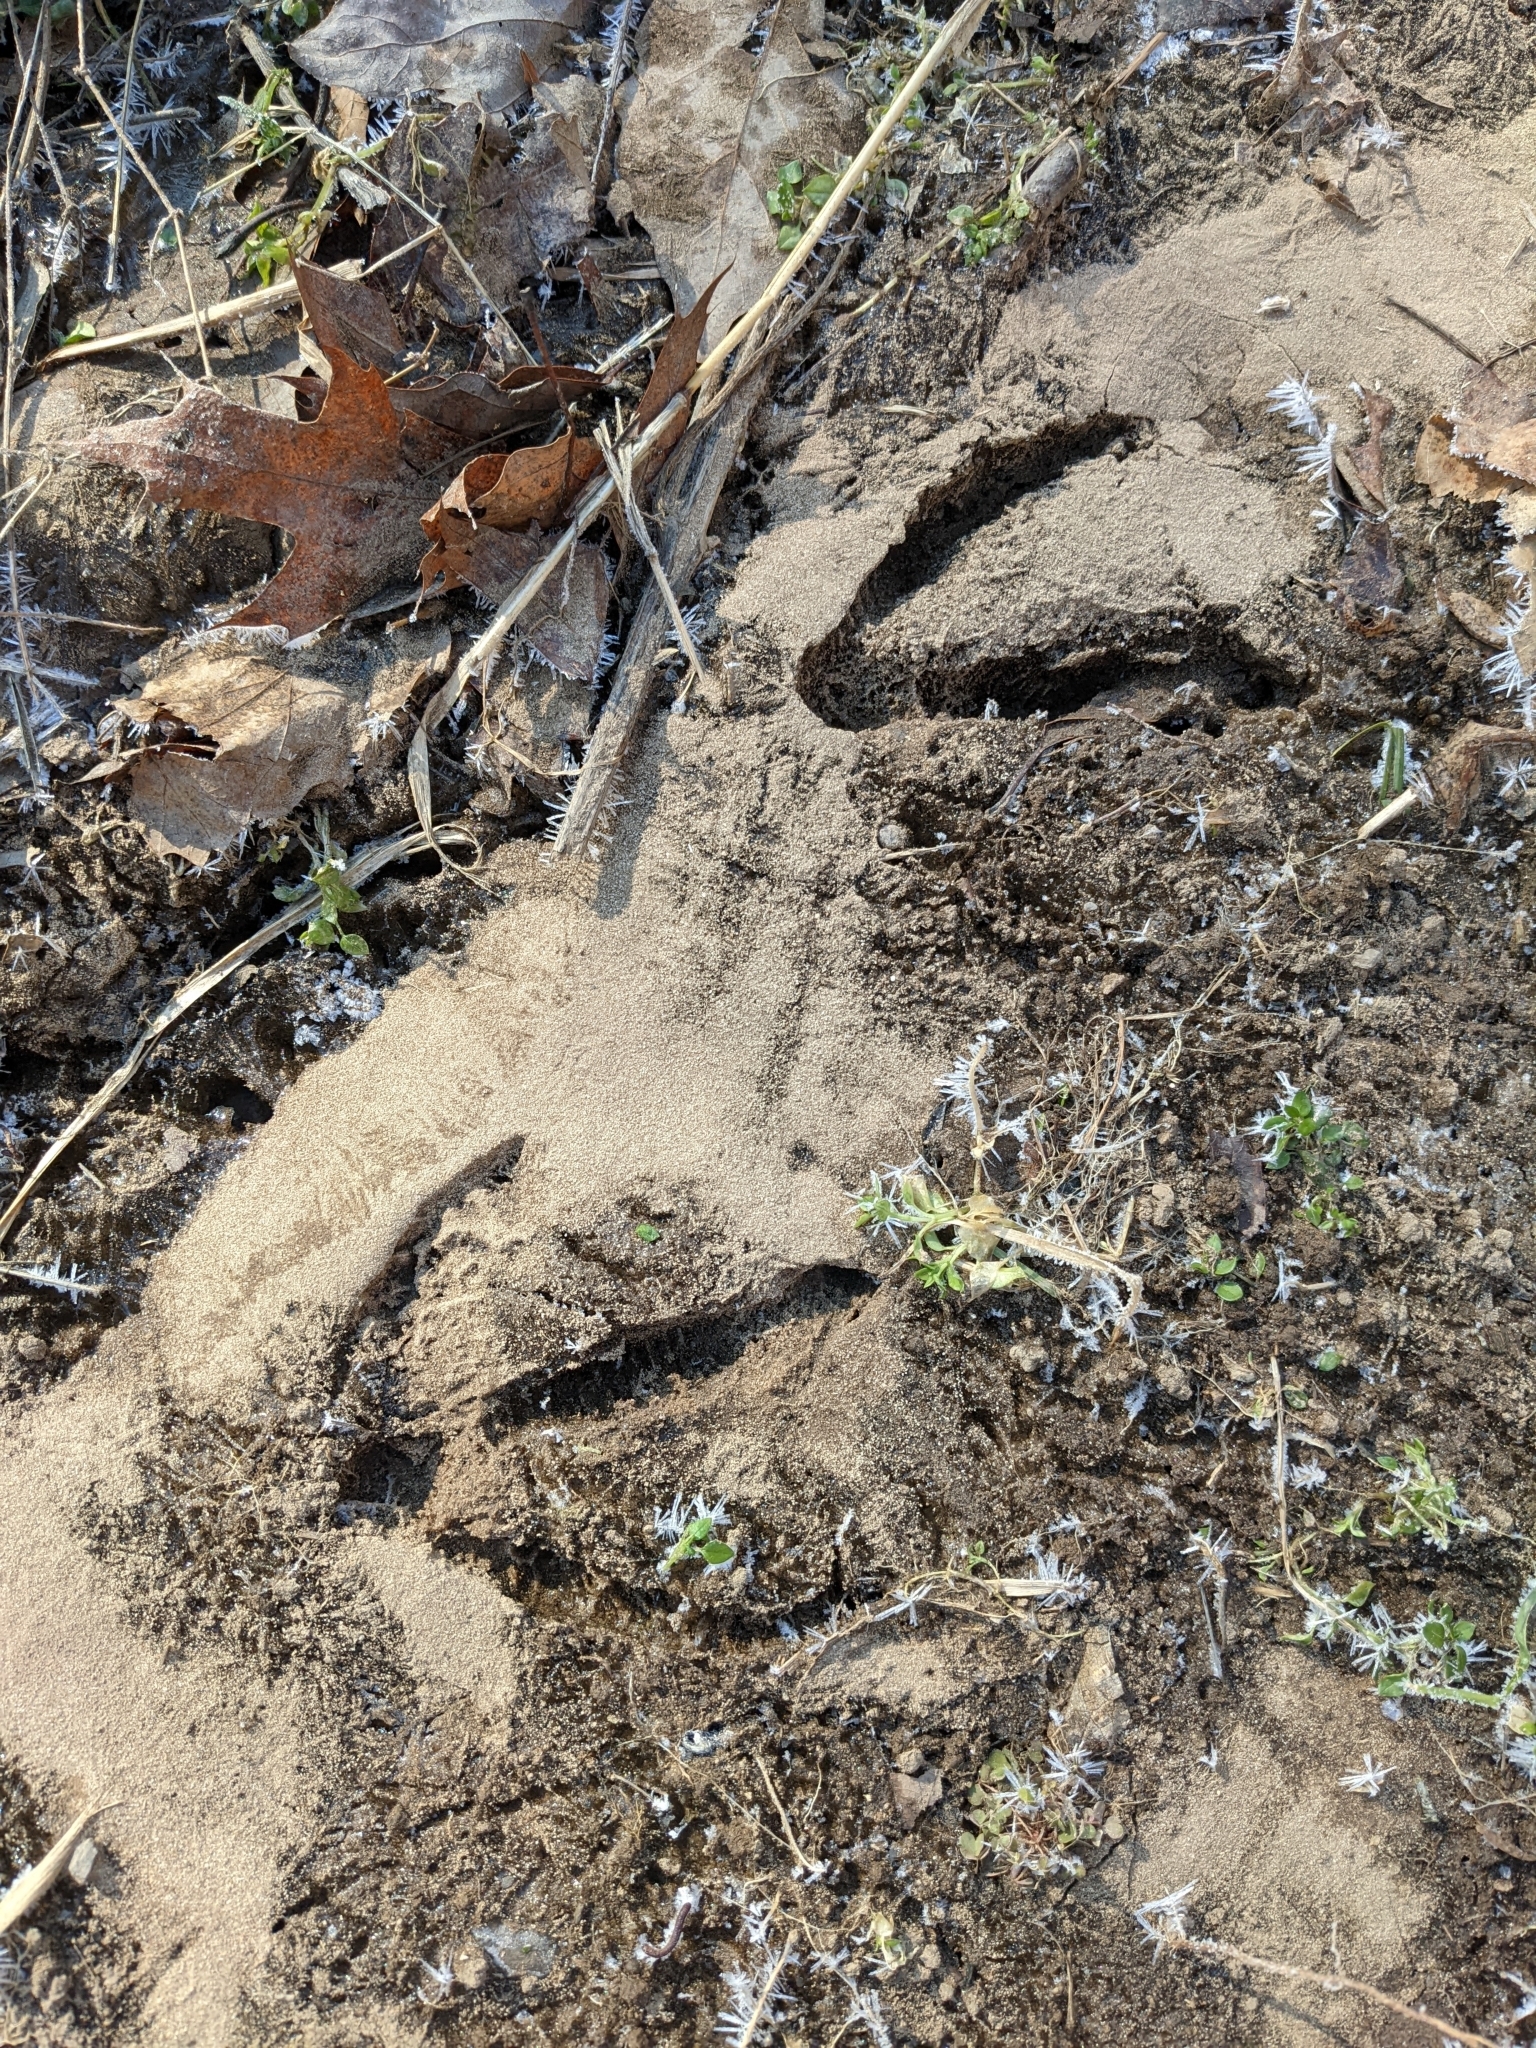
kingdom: Animalia
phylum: Chordata
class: Aves
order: Anseriformes
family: Anatidae
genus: Branta
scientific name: Branta canadensis
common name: Canada goose
